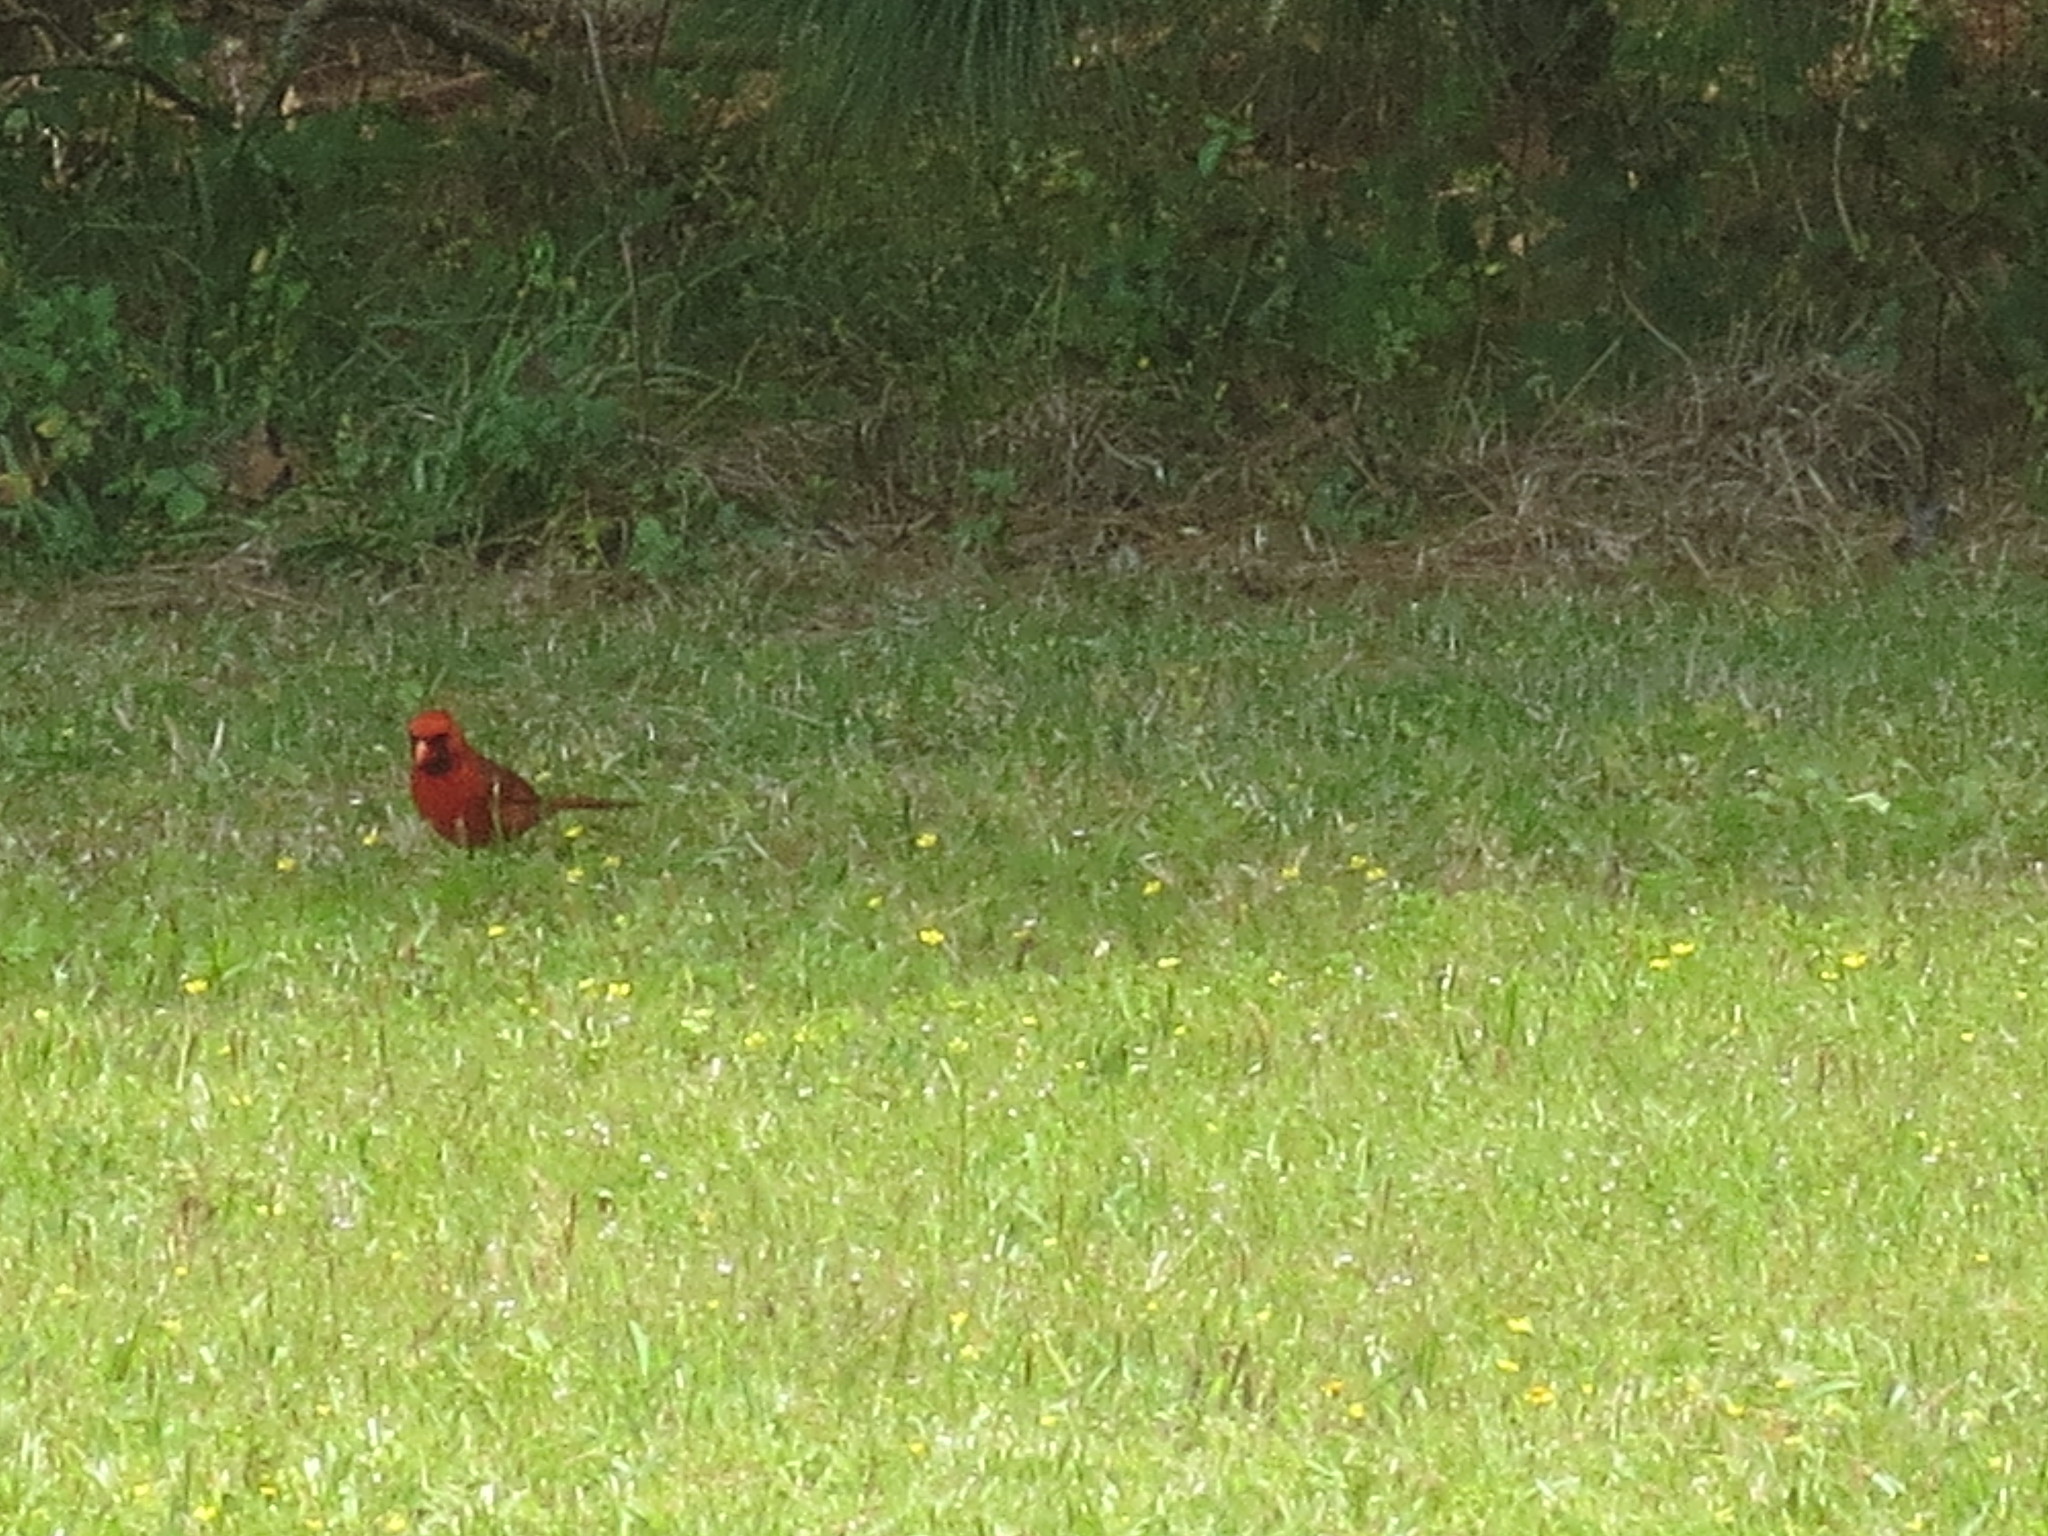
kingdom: Animalia
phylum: Chordata
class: Aves
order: Passeriformes
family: Cardinalidae
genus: Cardinalis
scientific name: Cardinalis cardinalis
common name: Northern cardinal
